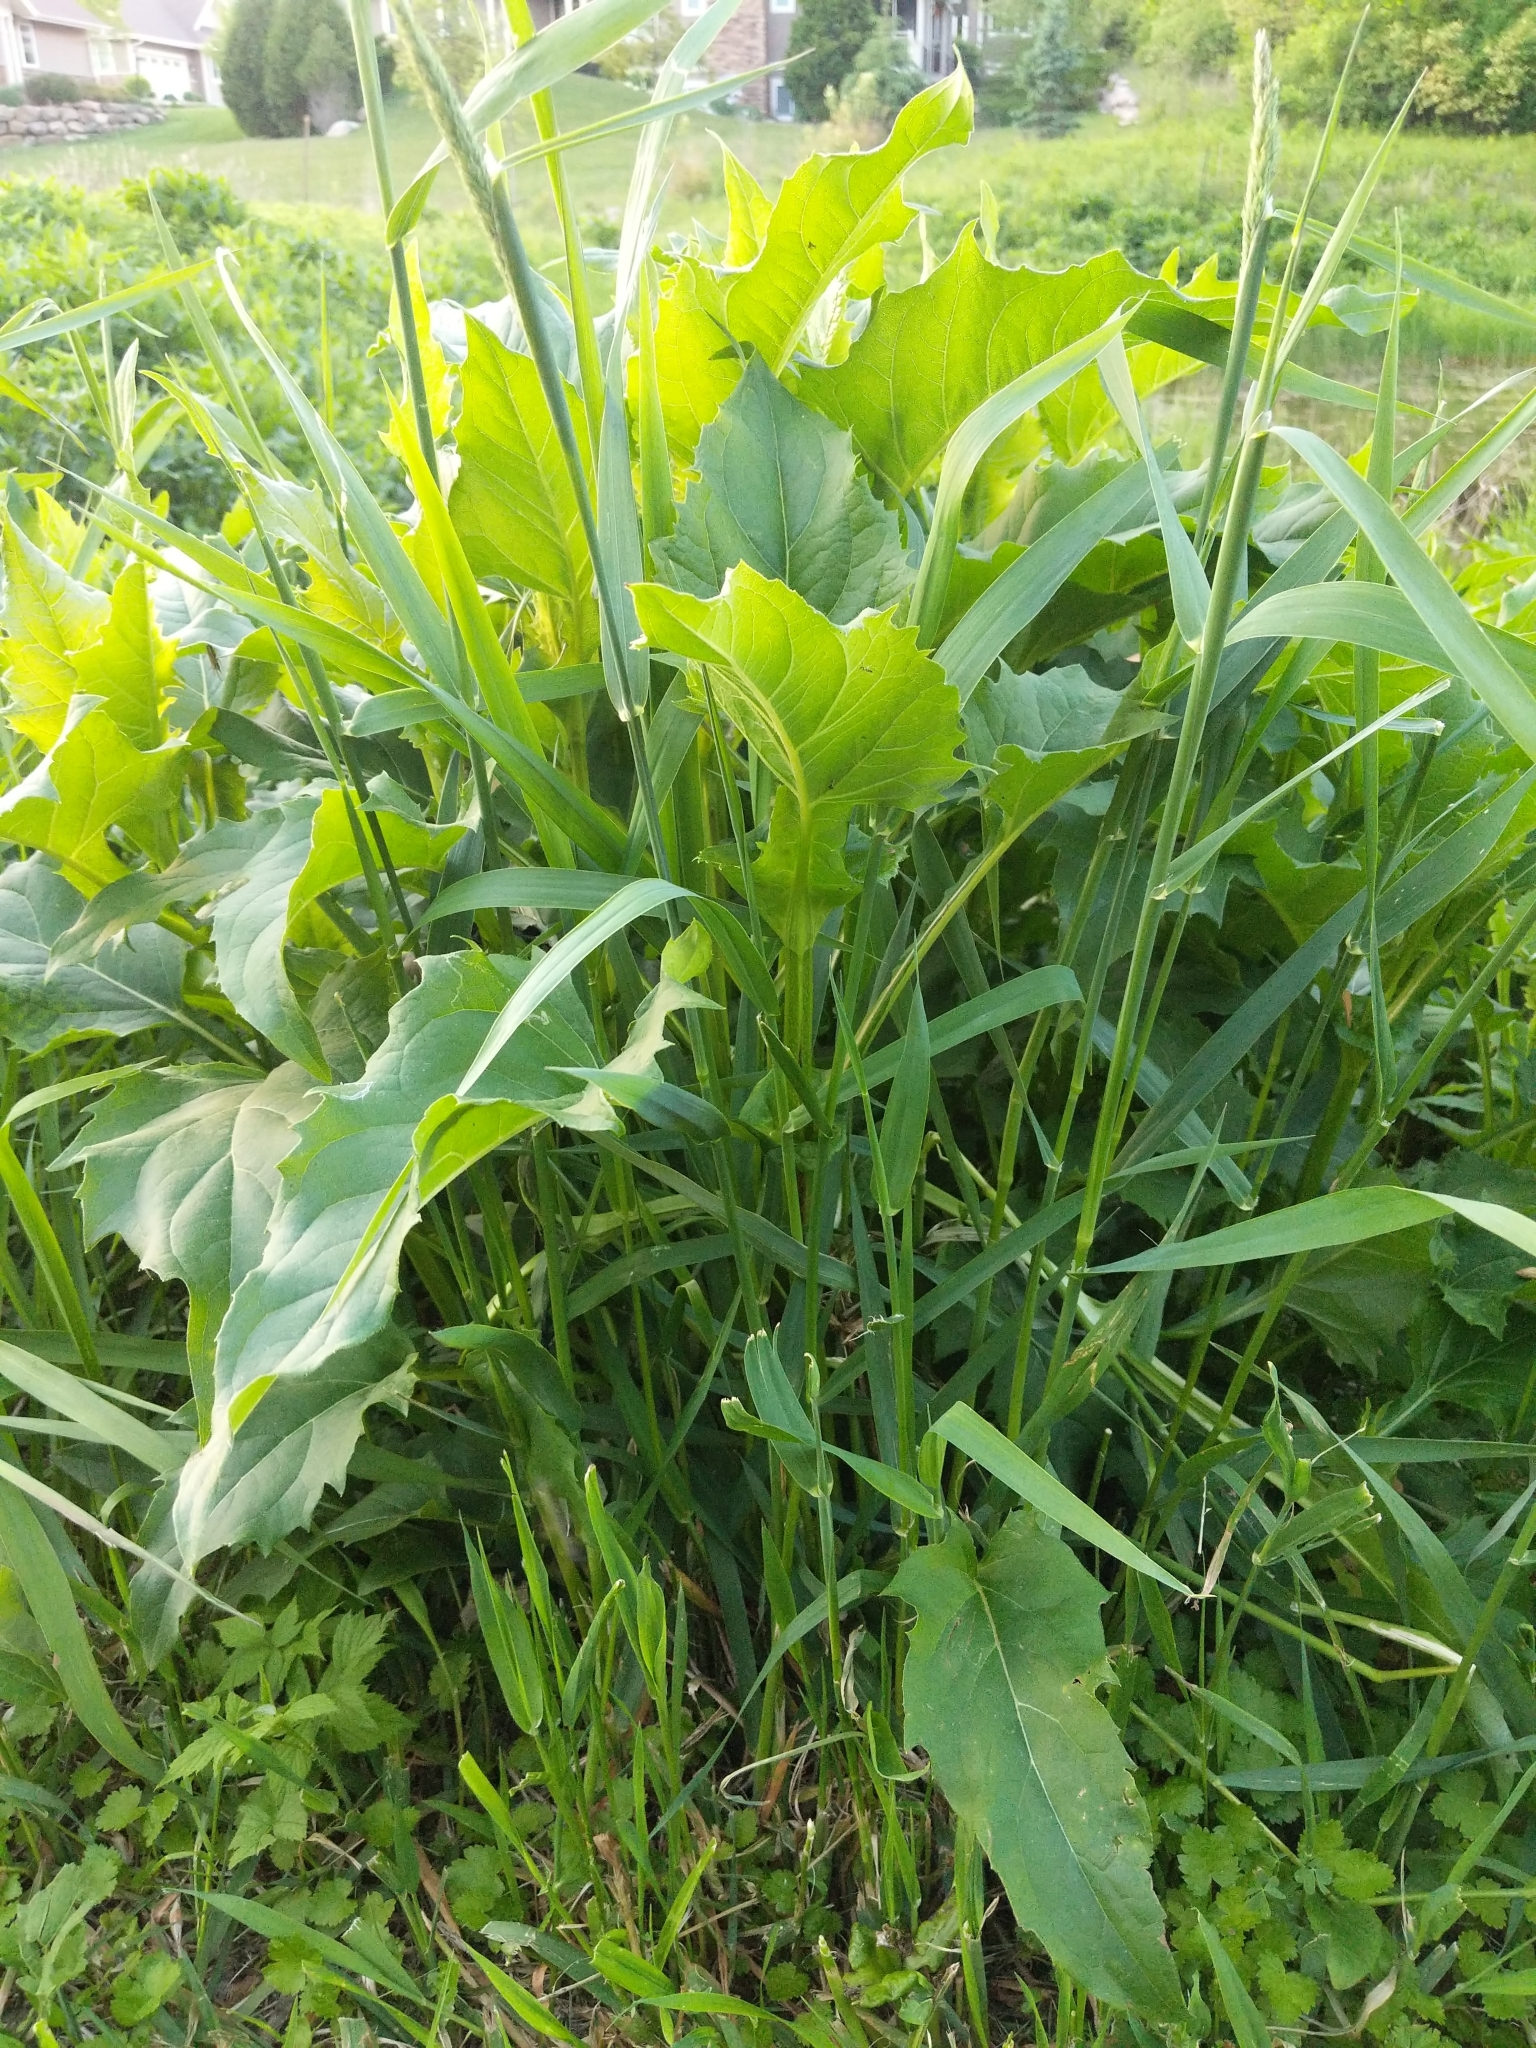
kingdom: Plantae
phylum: Tracheophyta
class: Magnoliopsida
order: Asterales
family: Asteraceae
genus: Silphium
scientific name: Silphium perfoliatum
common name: Cup-plant
